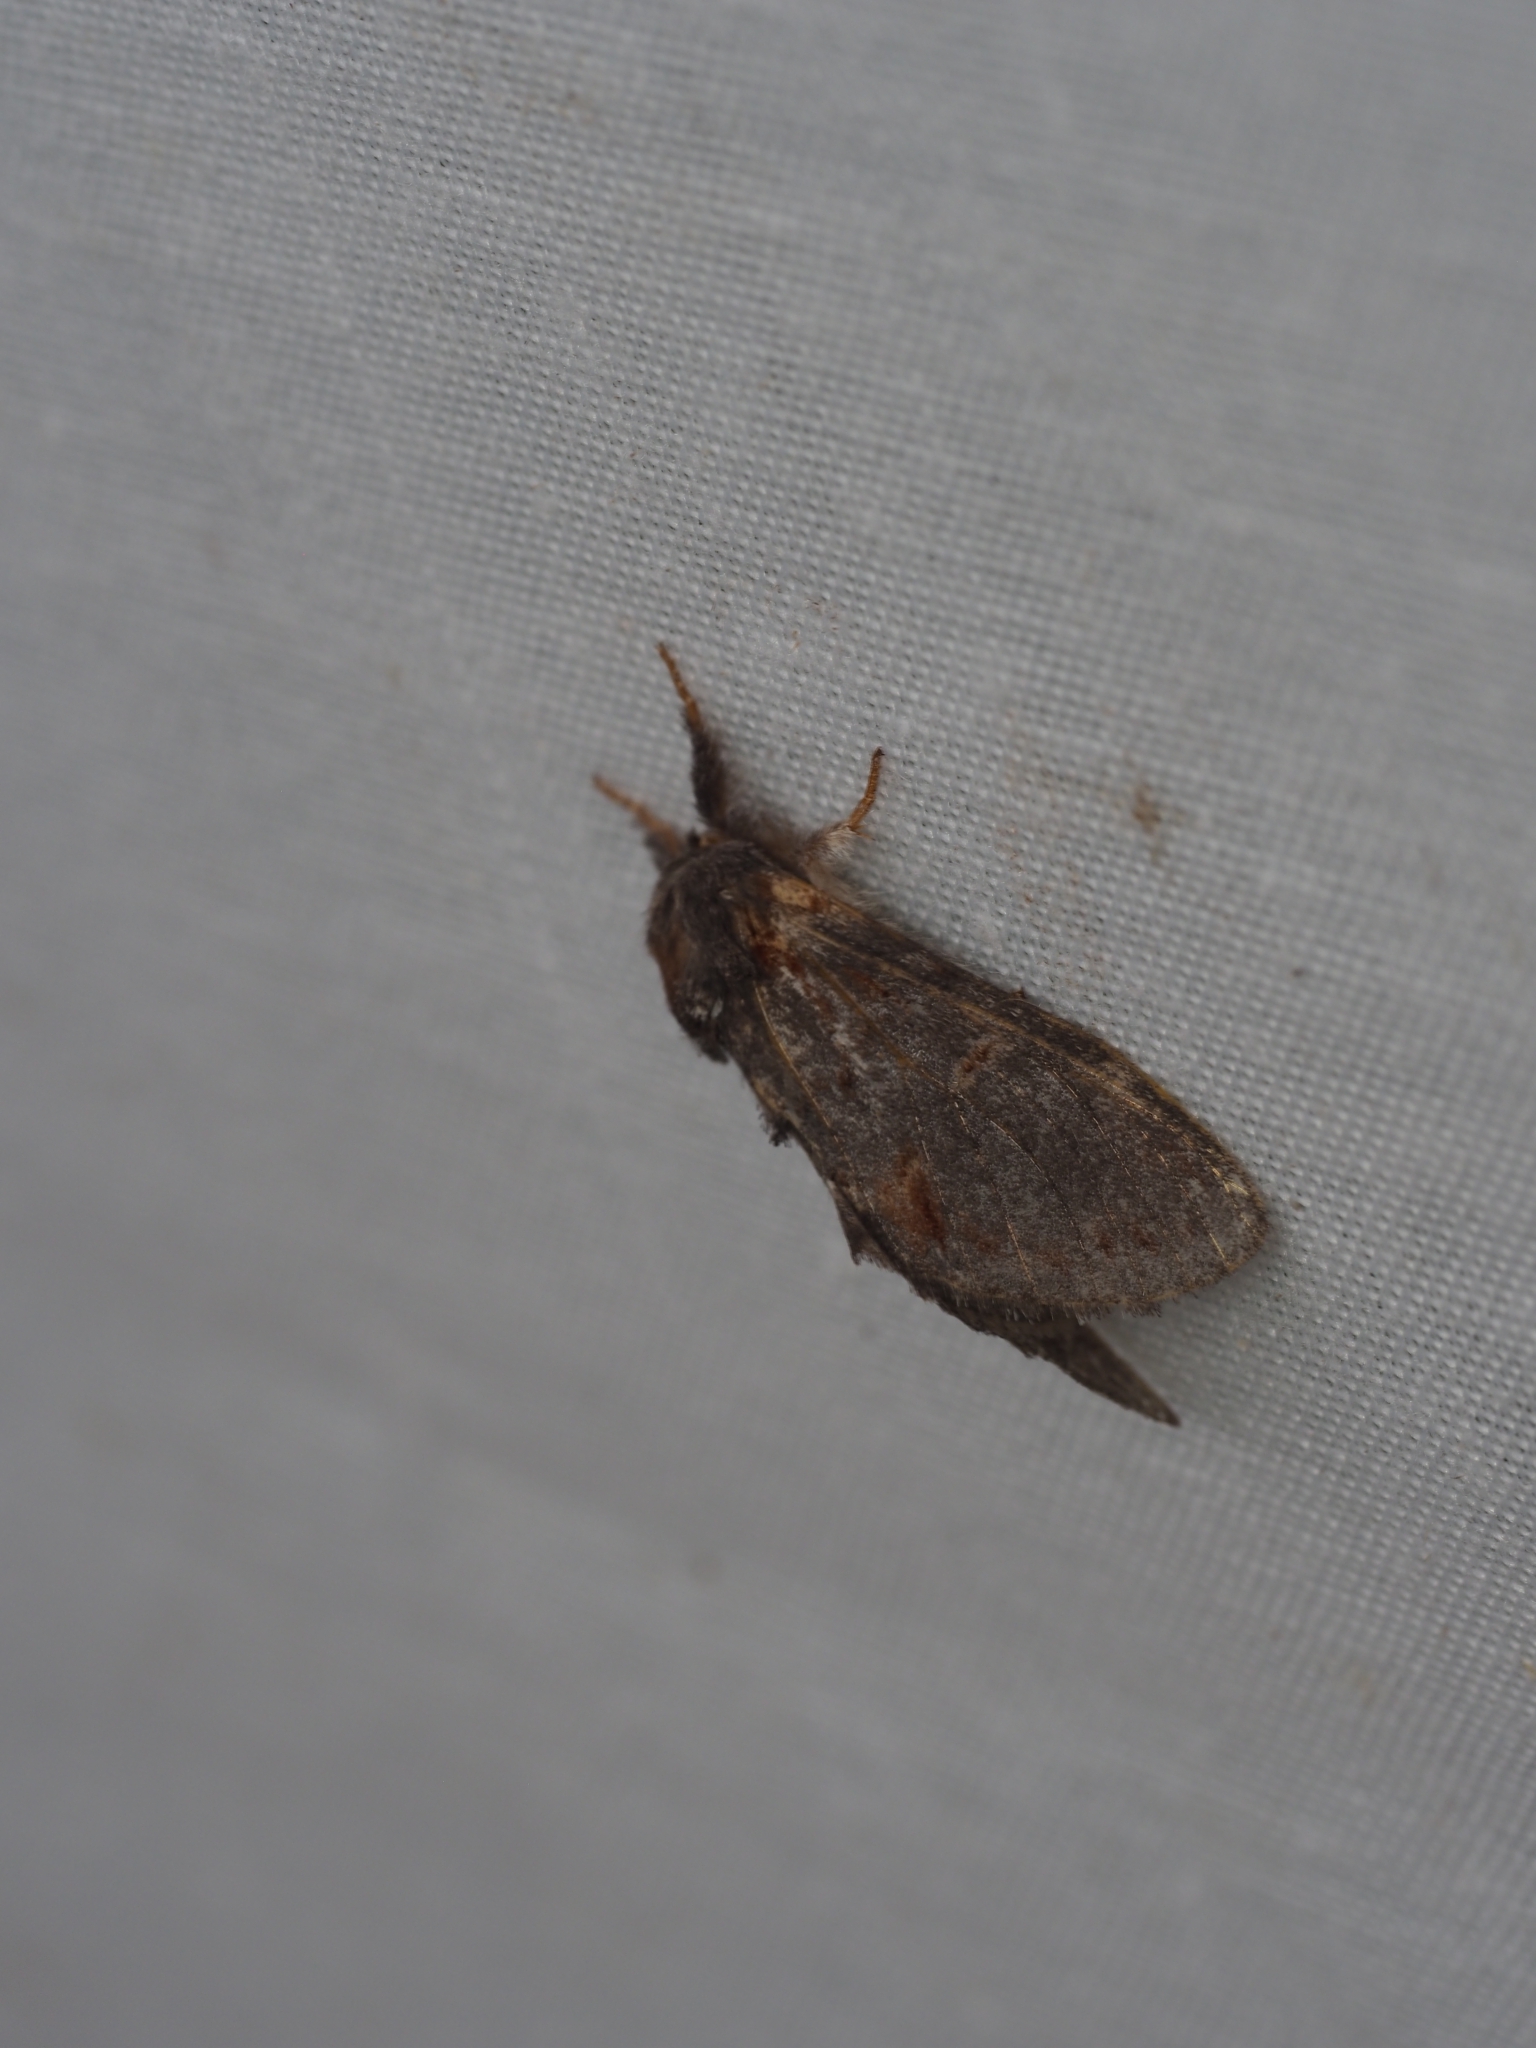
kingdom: Animalia
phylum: Arthropoda
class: Insecta
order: Lepidoptera
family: Notodontidae
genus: Notodonta
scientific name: Notodonta dromedarius
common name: Iron prominent
